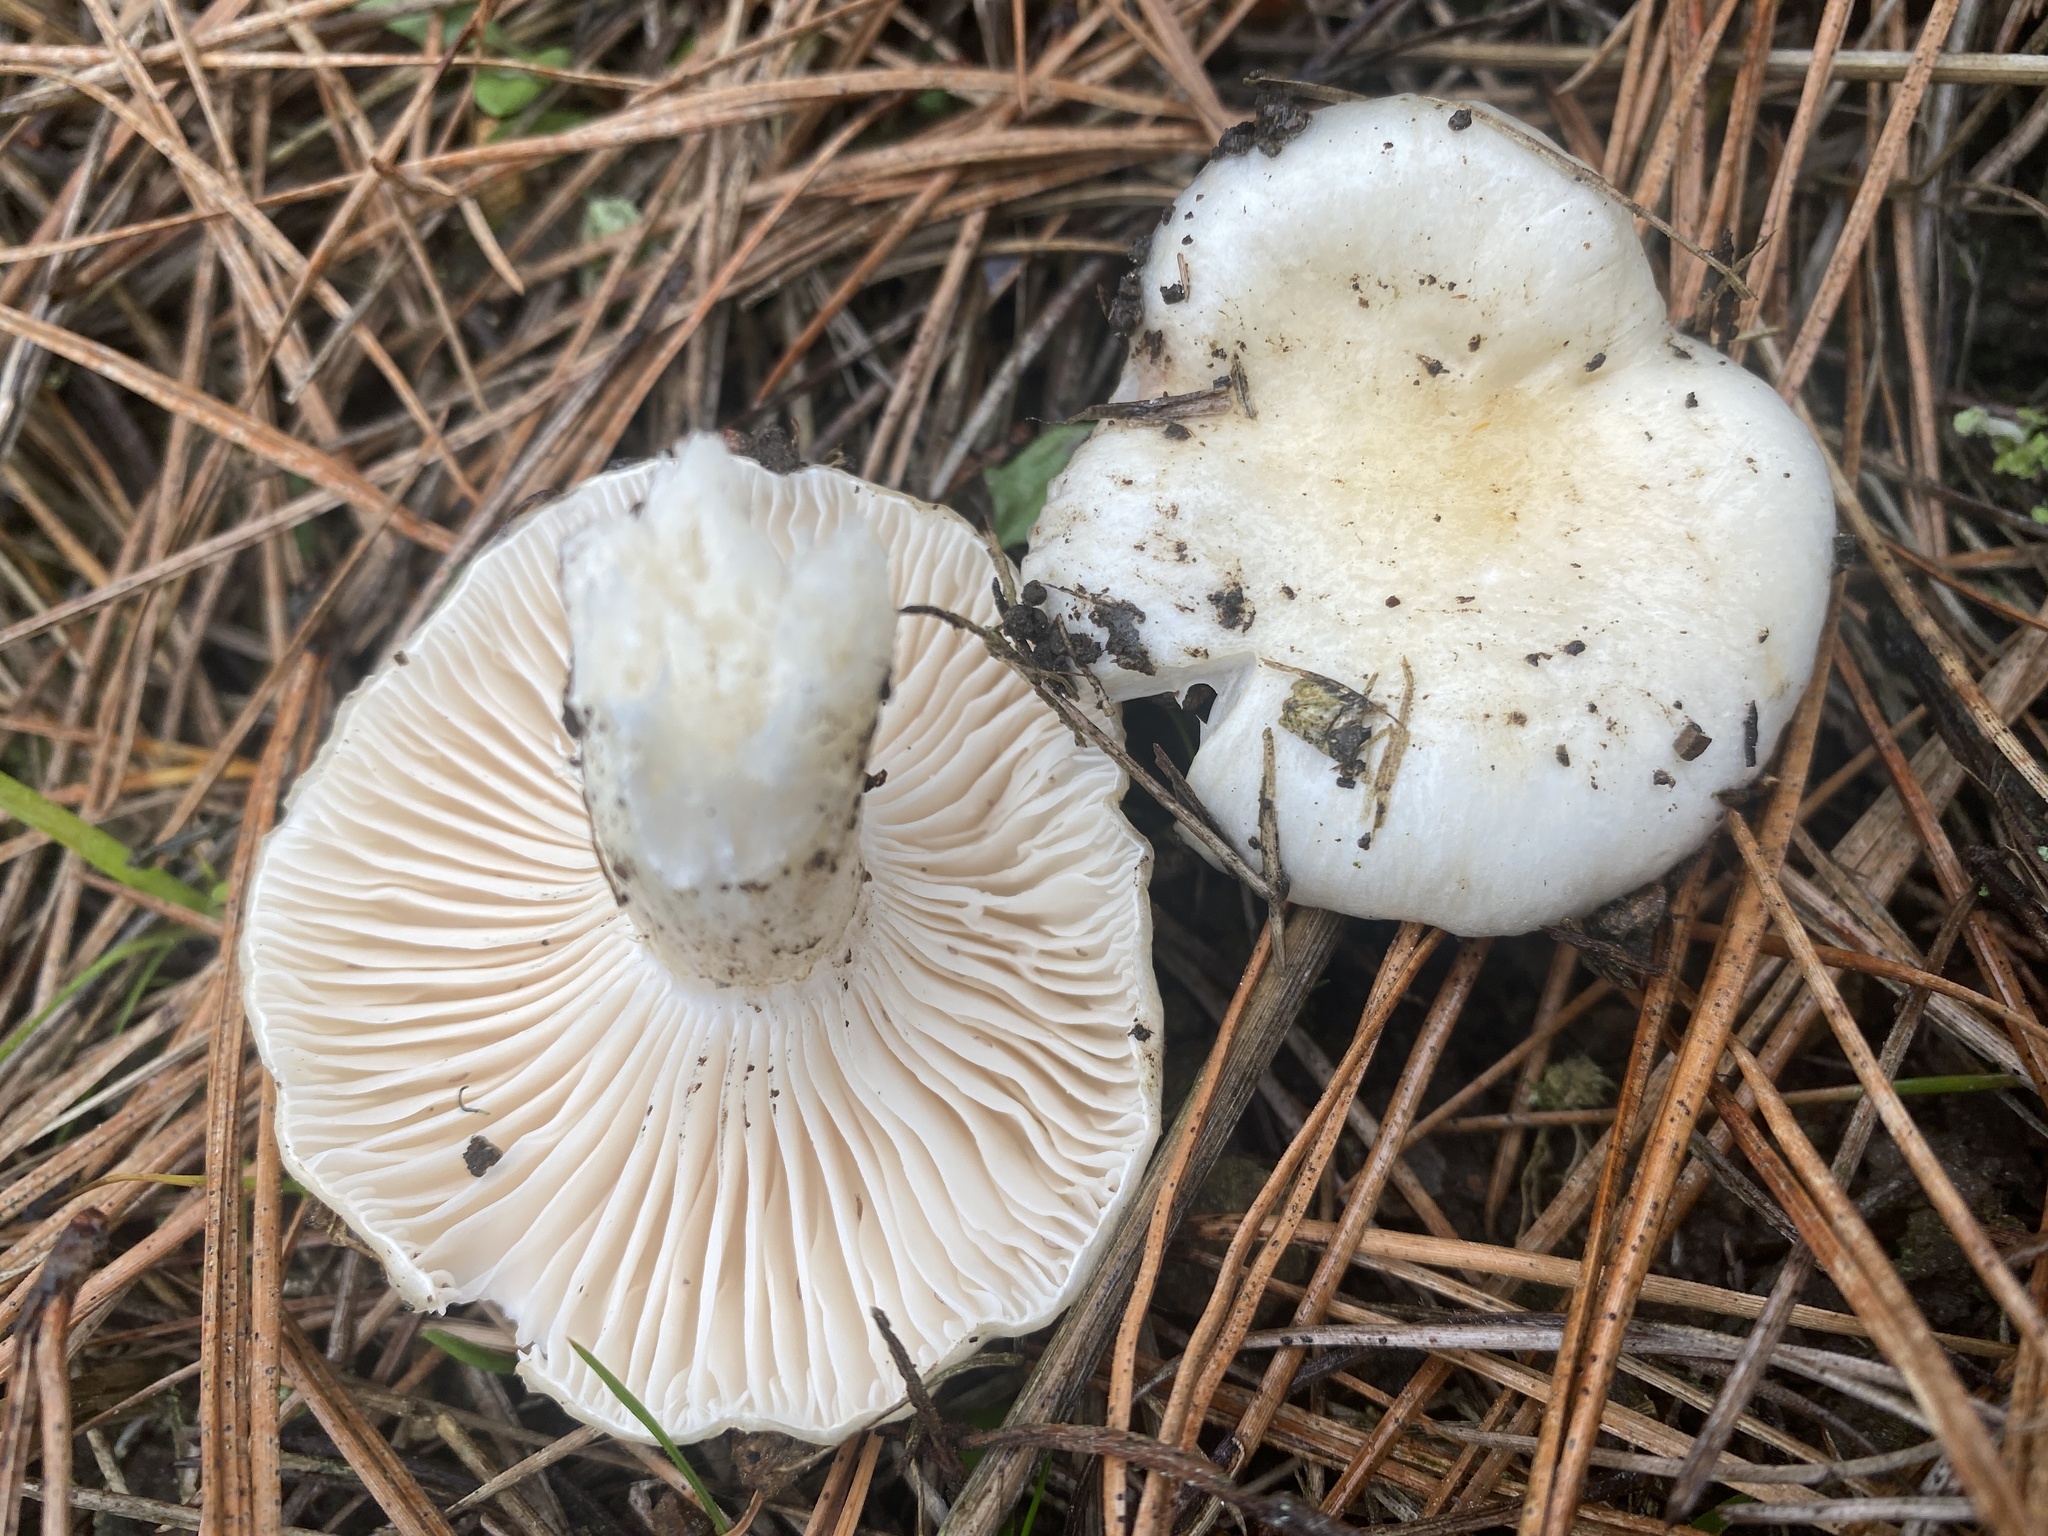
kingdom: Fungi
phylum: Basidiomycota
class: Agaricomycetes
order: Agaricales
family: Hygrophoraceae
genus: Hygrophorus
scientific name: Hygrophorus eburneus
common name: Ivory wax-cap
